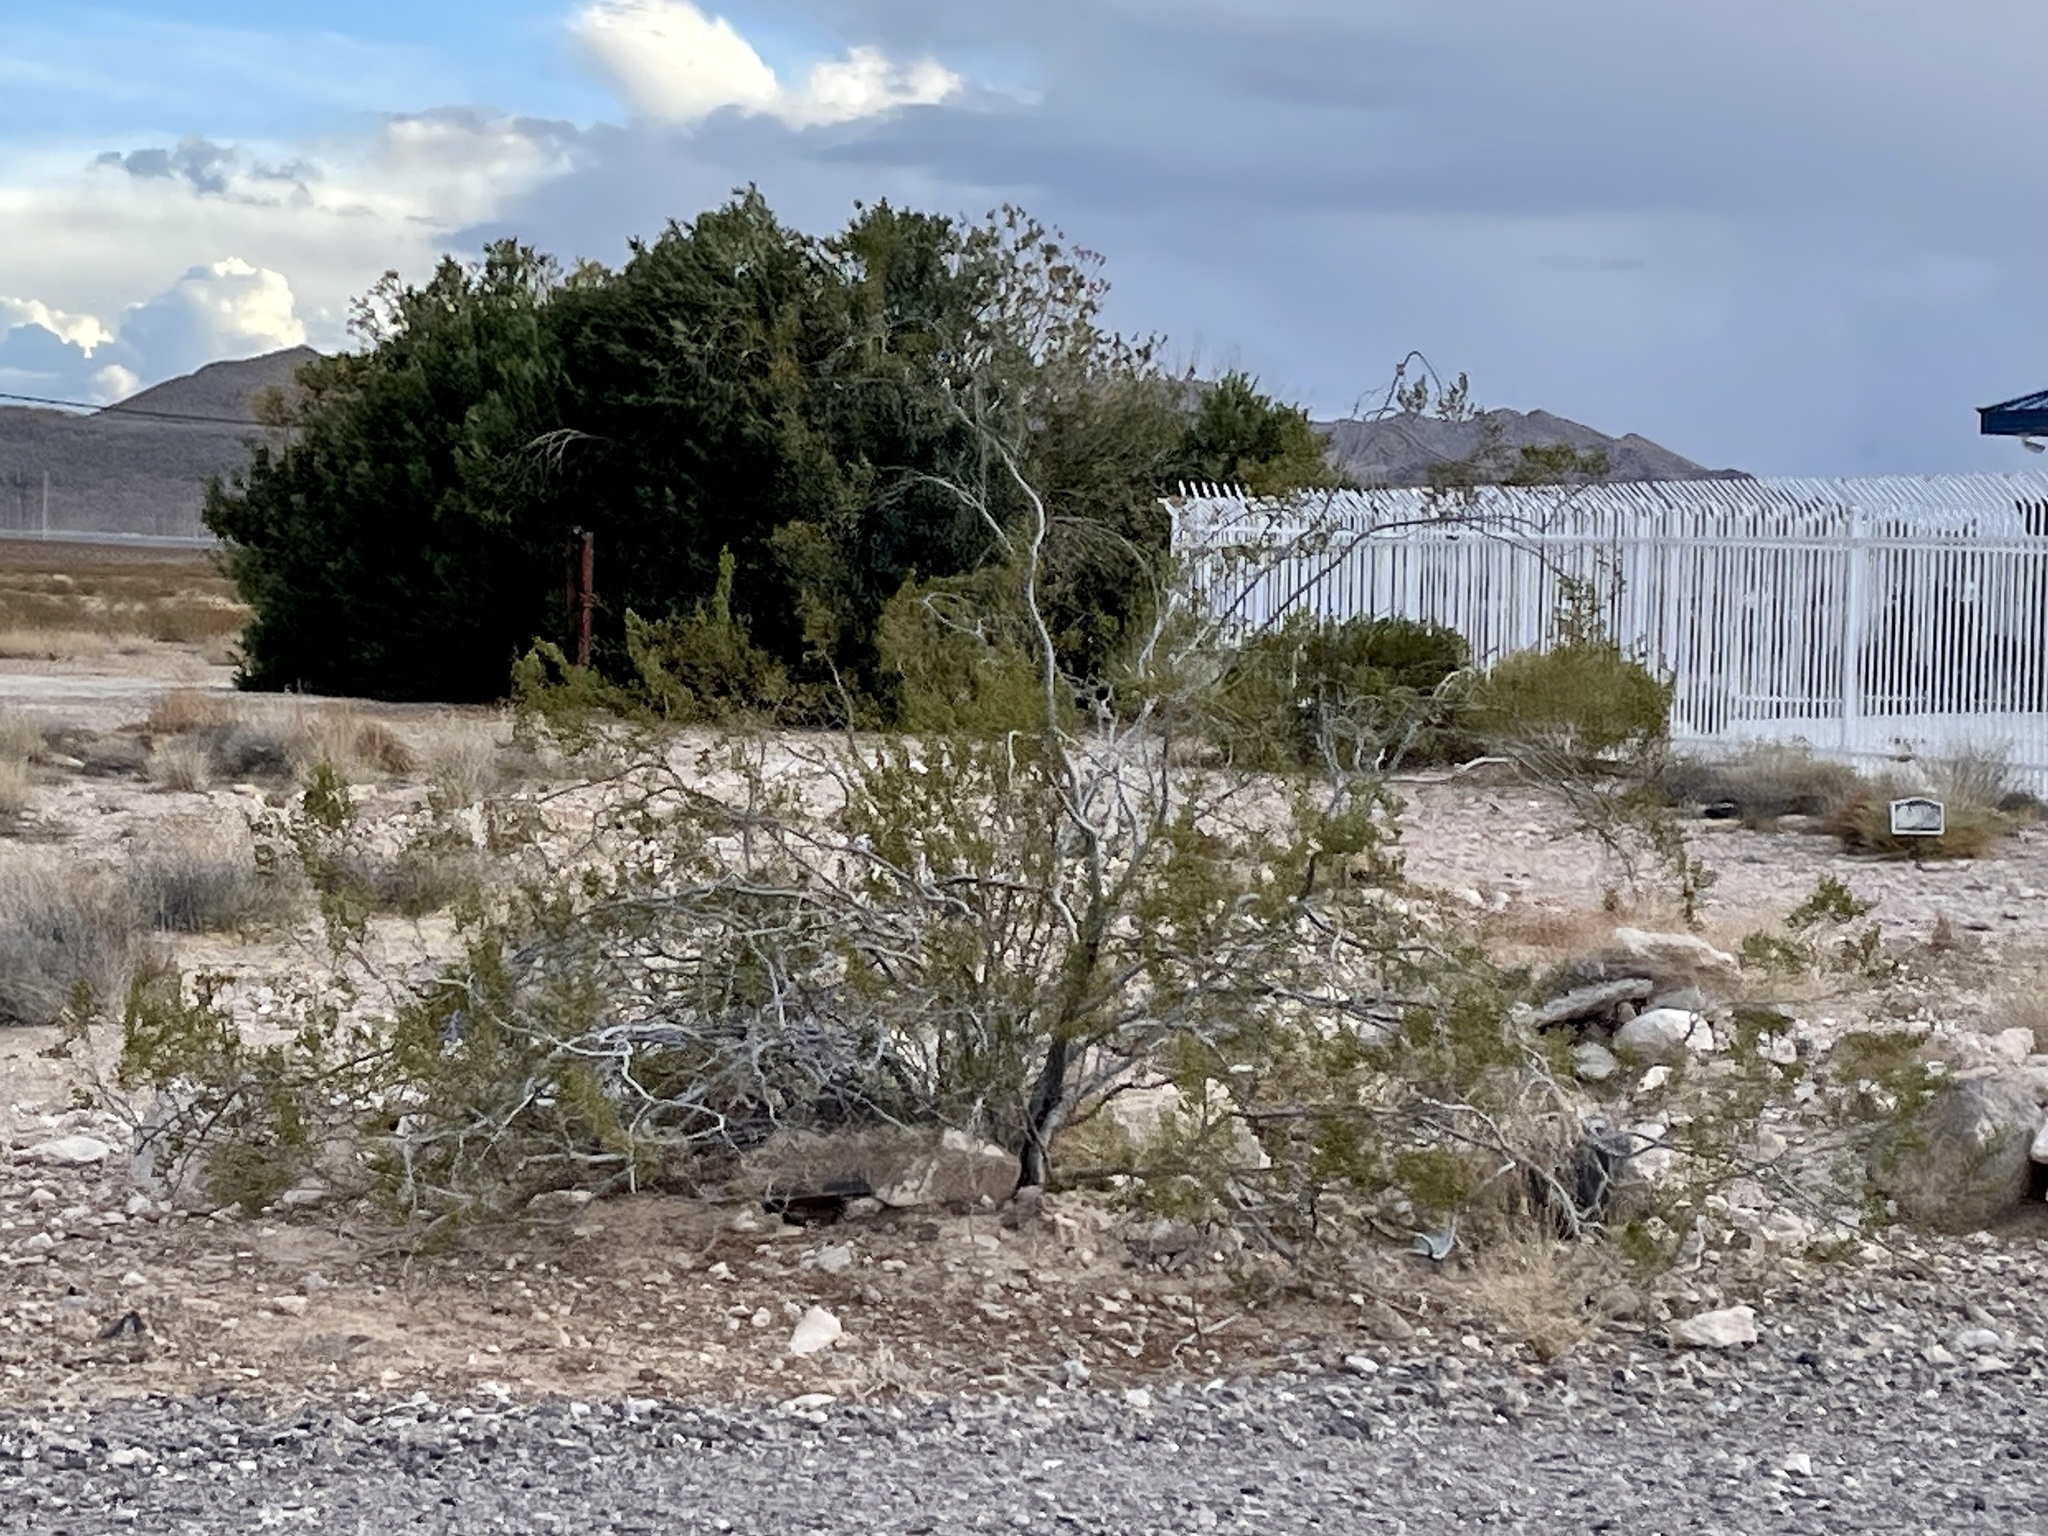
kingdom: Plantae
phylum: Tracheophyta
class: Magnoliopsida
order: Zygophyllales
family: Zygophyllaceae
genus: Larrea
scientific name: Larrea tridentata
